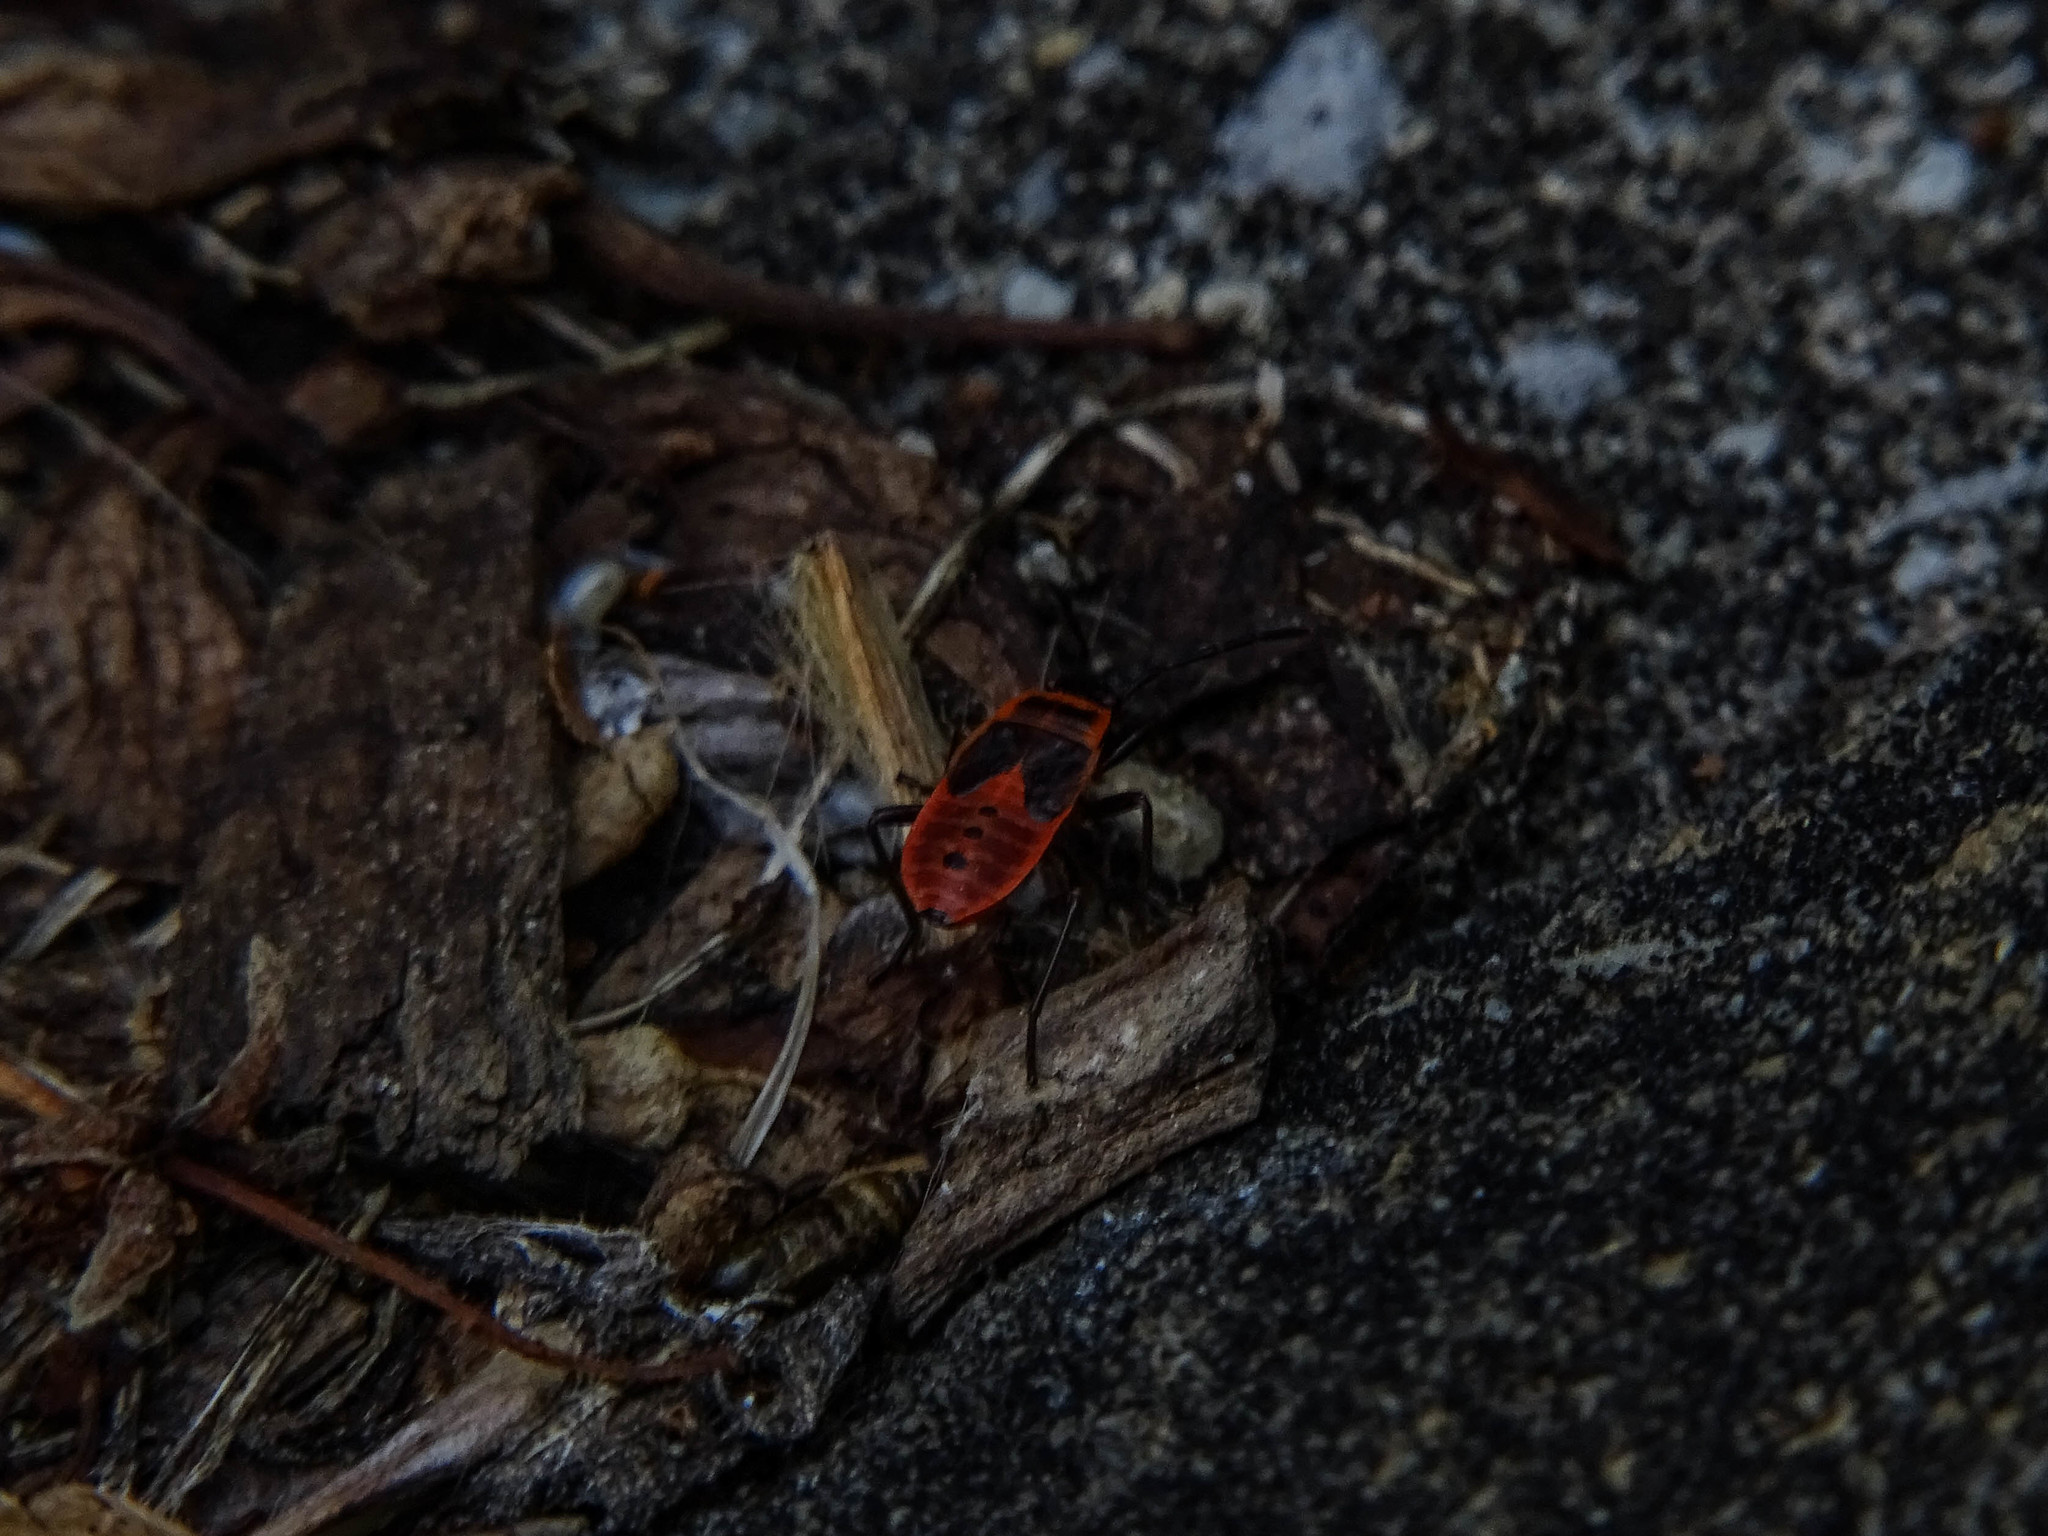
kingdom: Animalia
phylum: Arthropoda
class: Insecta
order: Hemiptera
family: Pyrrhocoridae
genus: Pyrrhocoris
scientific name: Pyrrhocoris apterus
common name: Firebug
